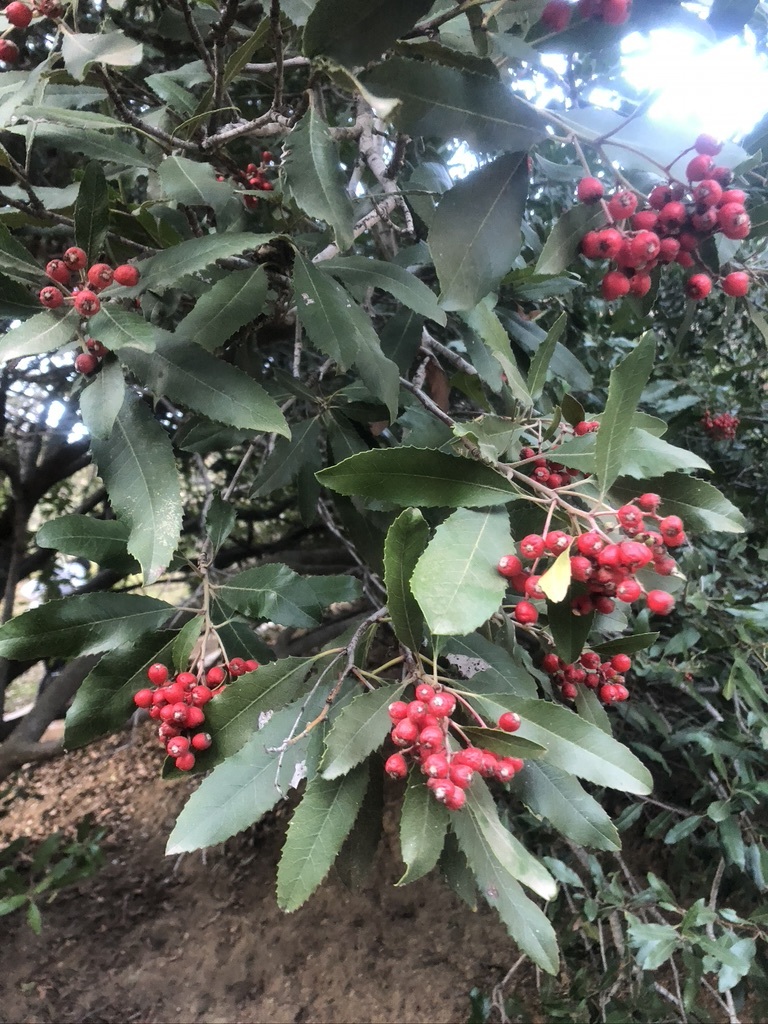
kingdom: Plantae
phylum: Tracheophyta
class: Magnoliopsida
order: Rosales
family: Rosaceae
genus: Heteromeles
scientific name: Heteromeles arbutifolia
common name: California-holly
